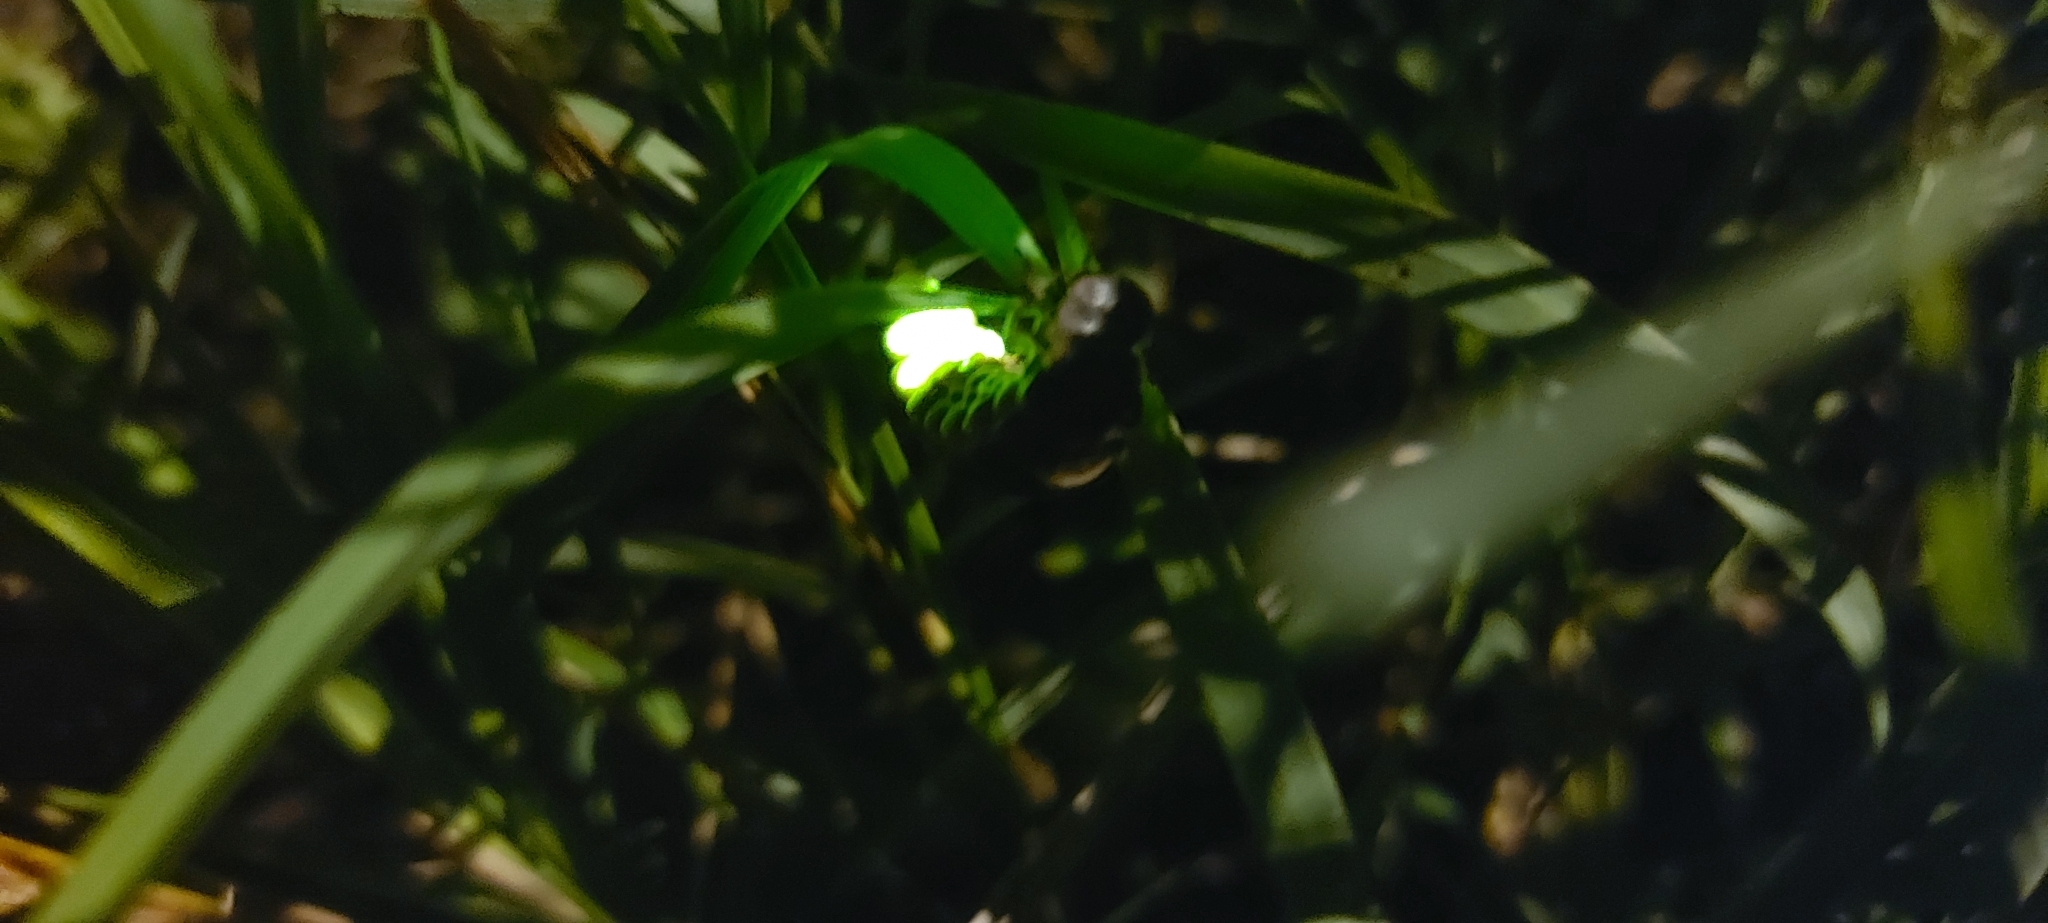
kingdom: Animalia
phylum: Arthropoda
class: Insecta
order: Coleoptera
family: Lampyridae
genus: Lampyris
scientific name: Lampyris noctiluca
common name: Glow-worm
